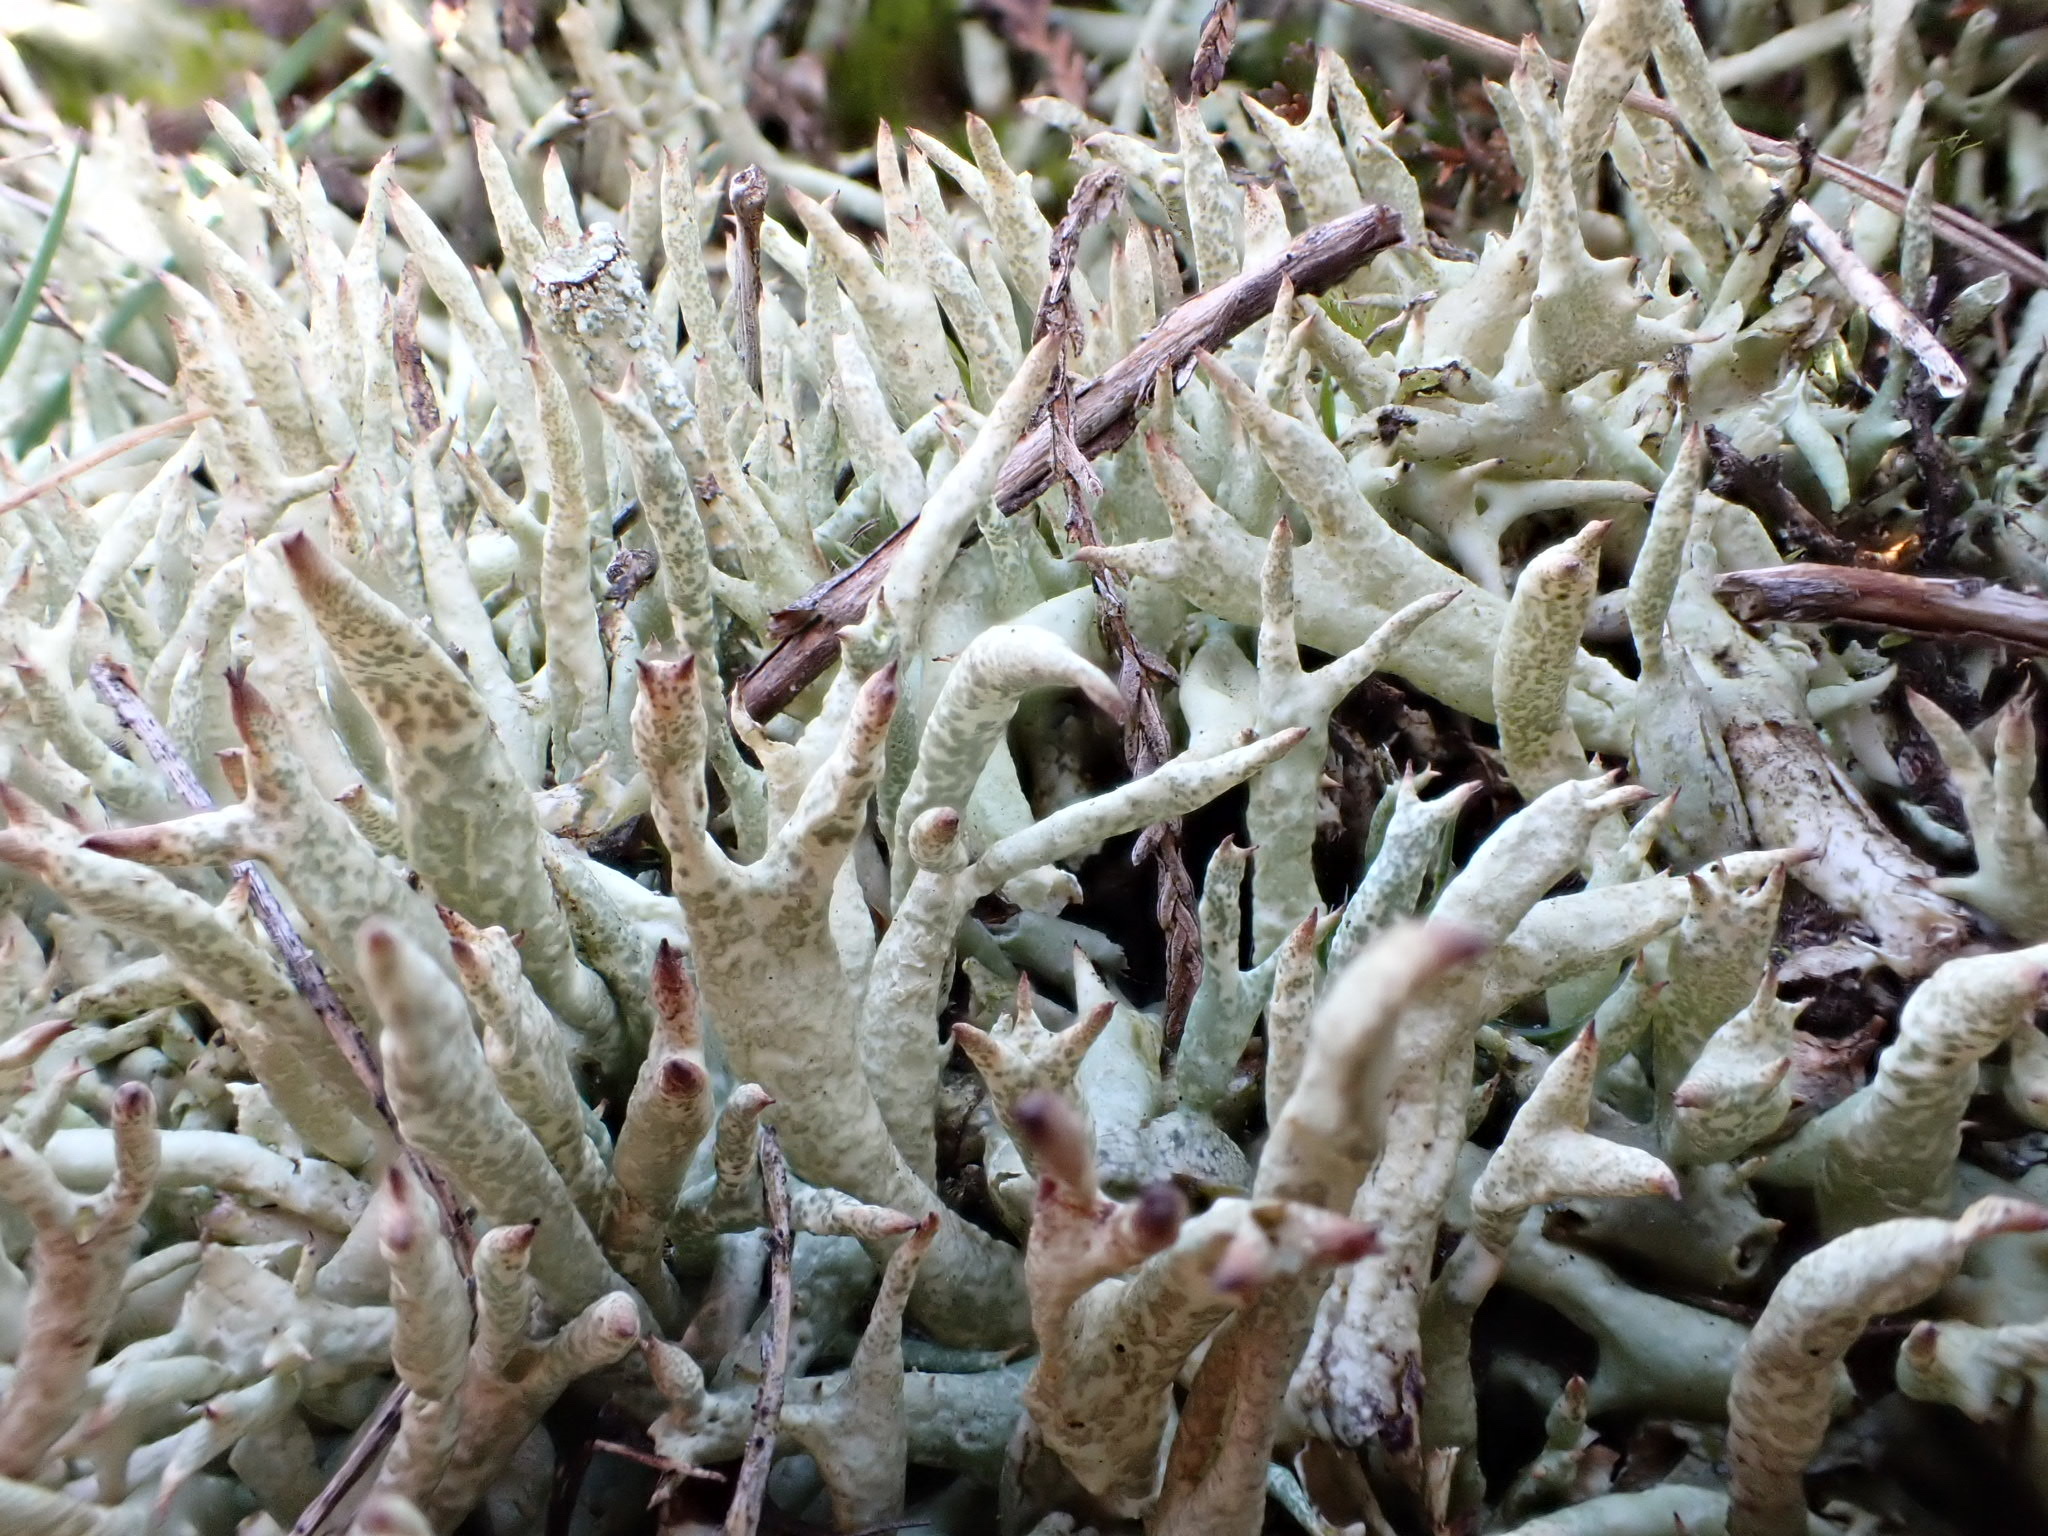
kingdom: Fungi
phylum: Ascomycota
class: Lecanoromycetes
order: Lecanorales
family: Cladoniaceae
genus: Cladonia
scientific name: Cladonia uncialis
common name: Thorn lichen
